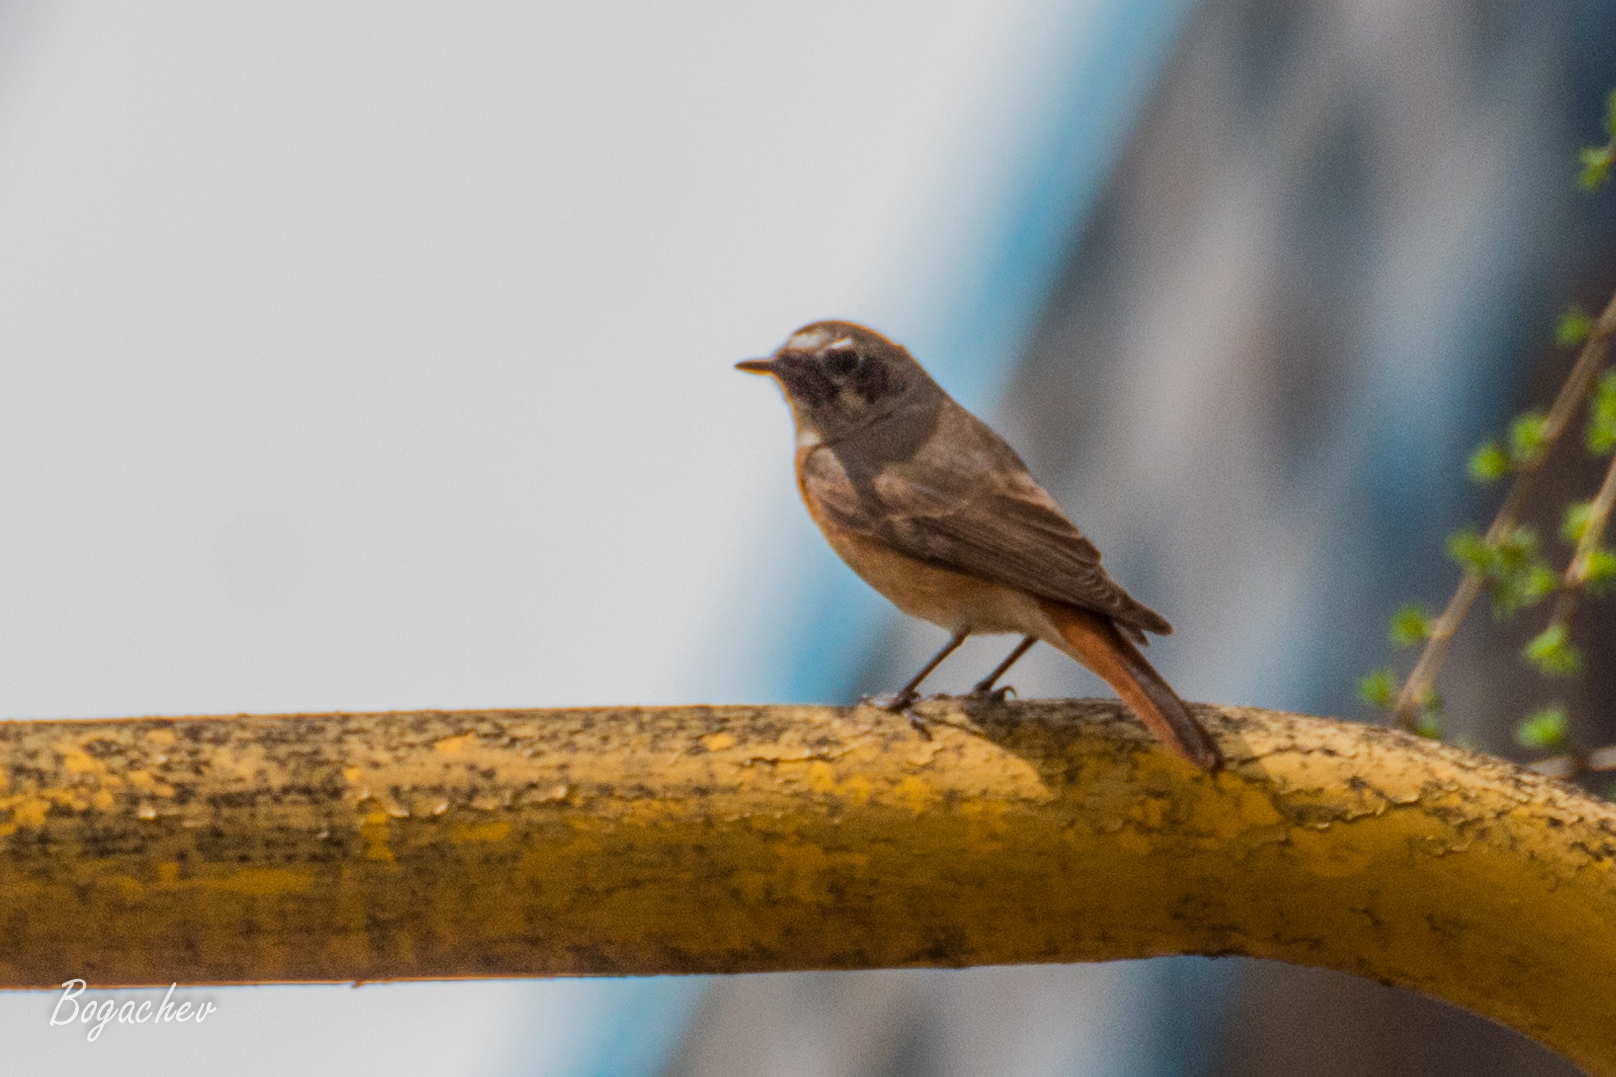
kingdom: Animalia
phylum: Chordata
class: Aves
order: Passeriformes
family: Muscicapidae
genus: Phoenicurus
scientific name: Phoenicurus phoenicurus
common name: Common redstart
